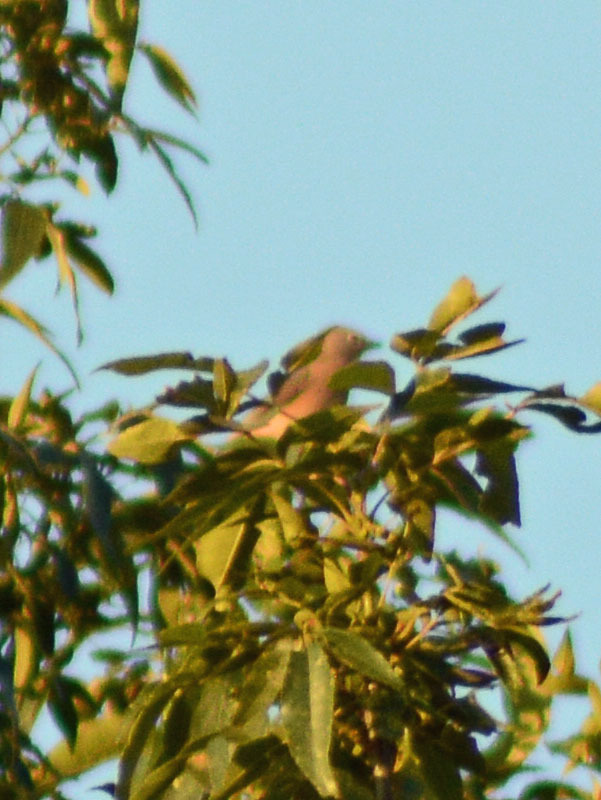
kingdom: Animalia
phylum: Chordata
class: Aves
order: Passeriformes
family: Ptilogonatidae
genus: Ptilogonys
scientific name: Ptilogonys cinereus
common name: Gray silky-flycatcher
